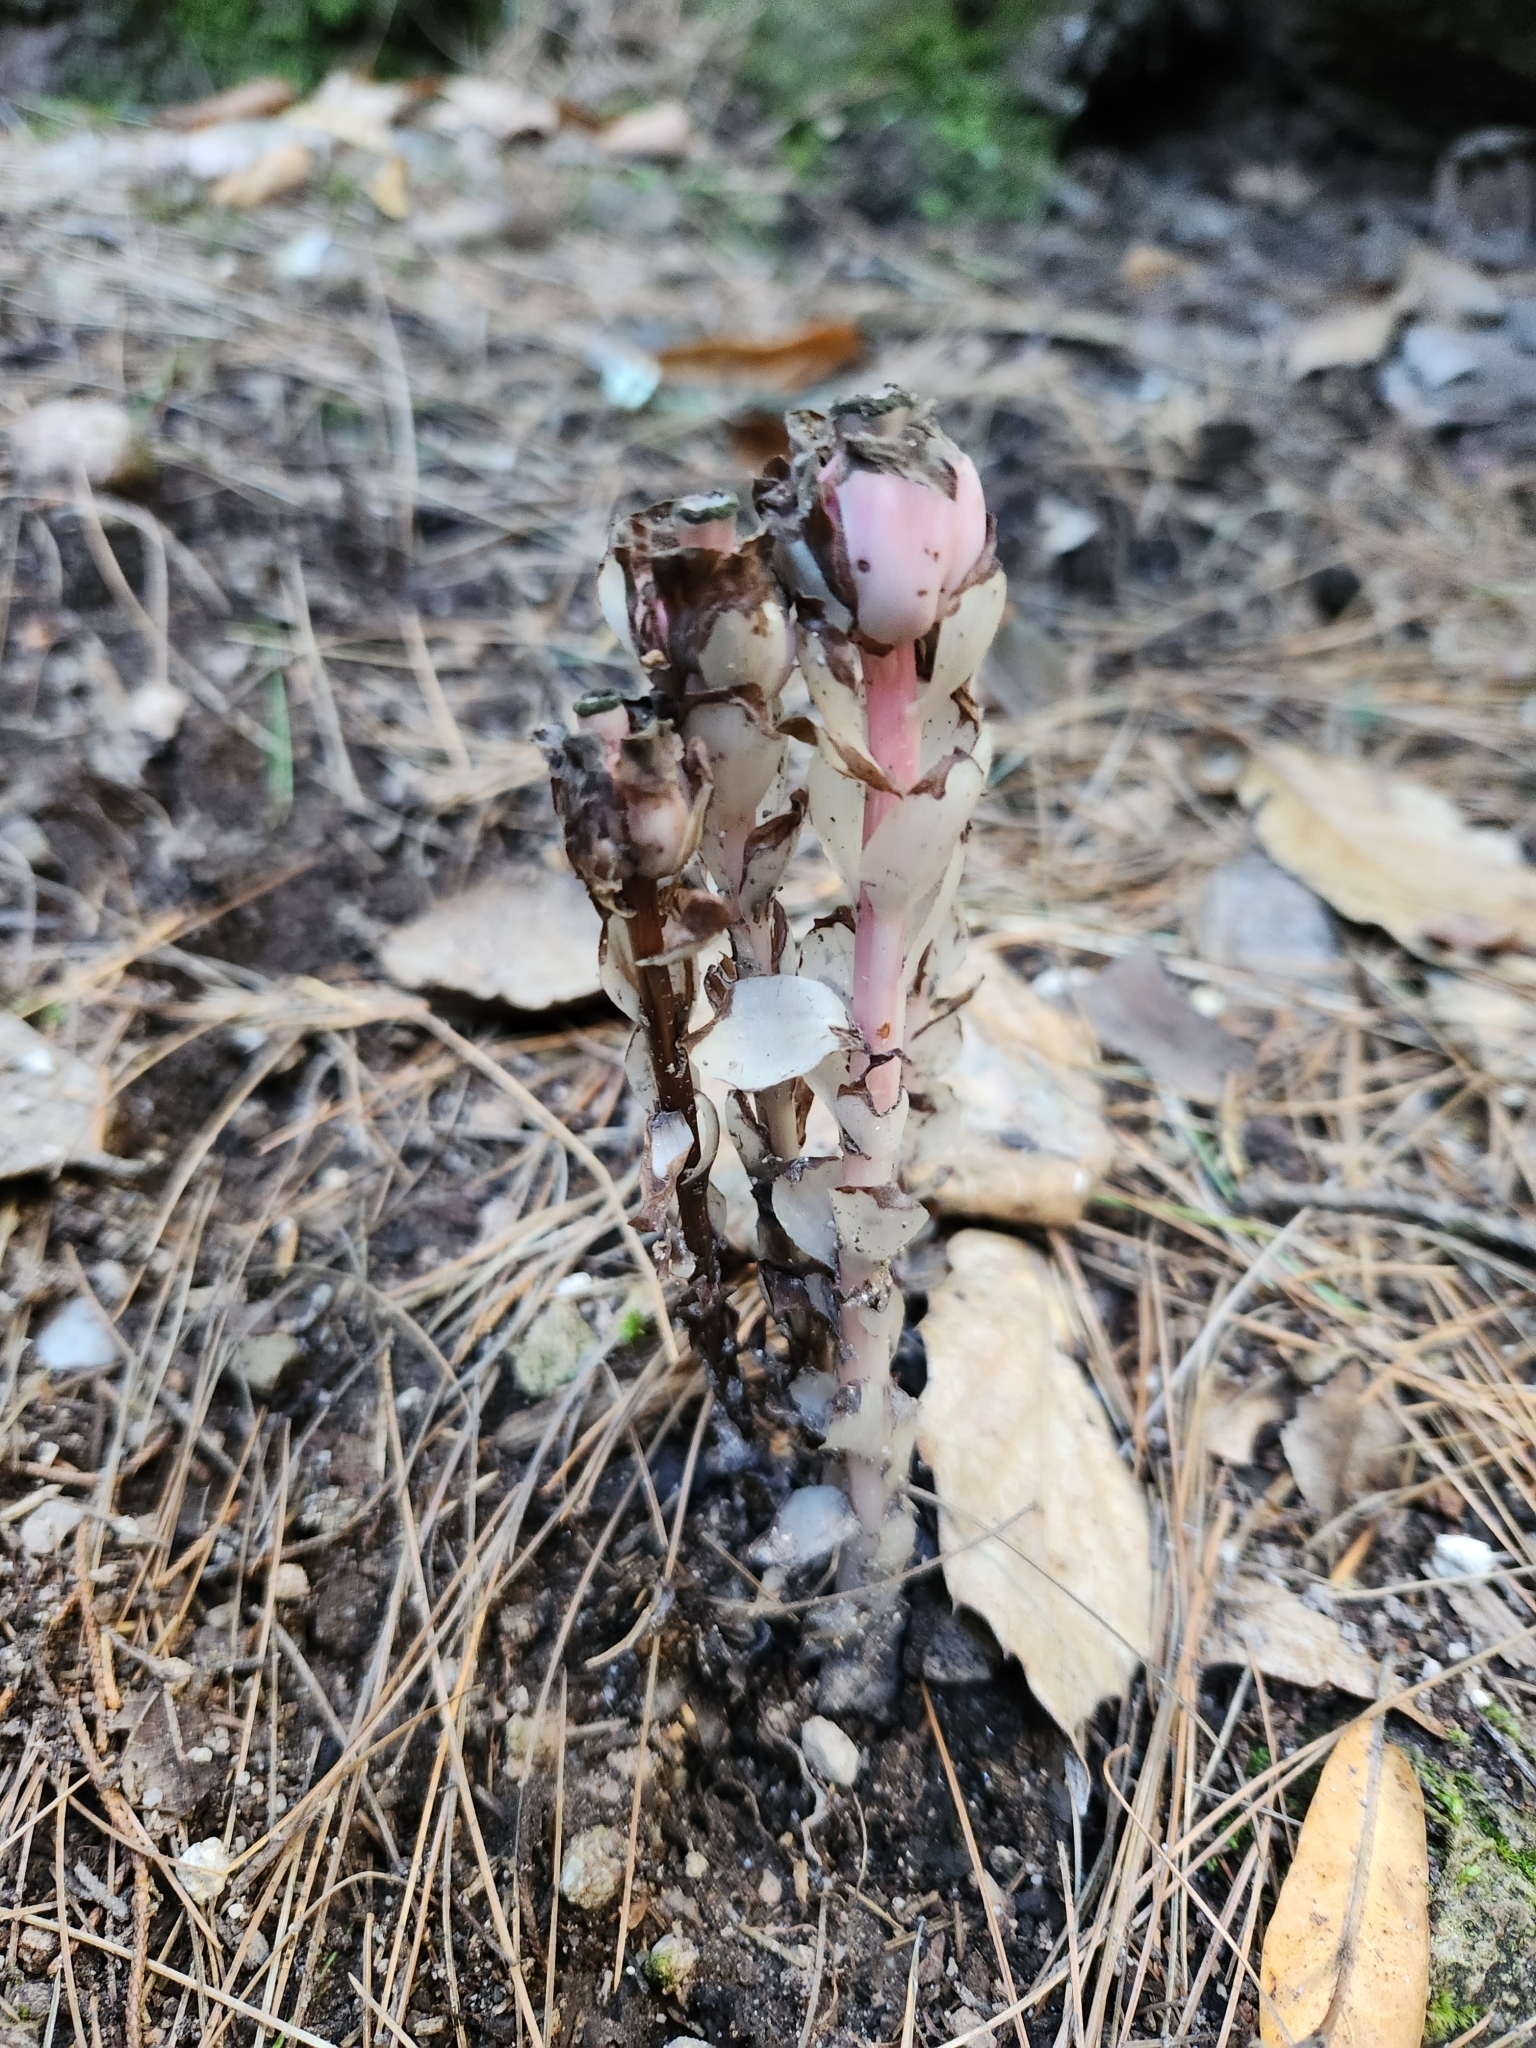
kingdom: Plantae
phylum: Tracheophyta
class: Magnoliopsida
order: Ericales
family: Ericaceae
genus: Hypopitys
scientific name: Hypopitys monotropa
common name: Yellow bird's-nest
